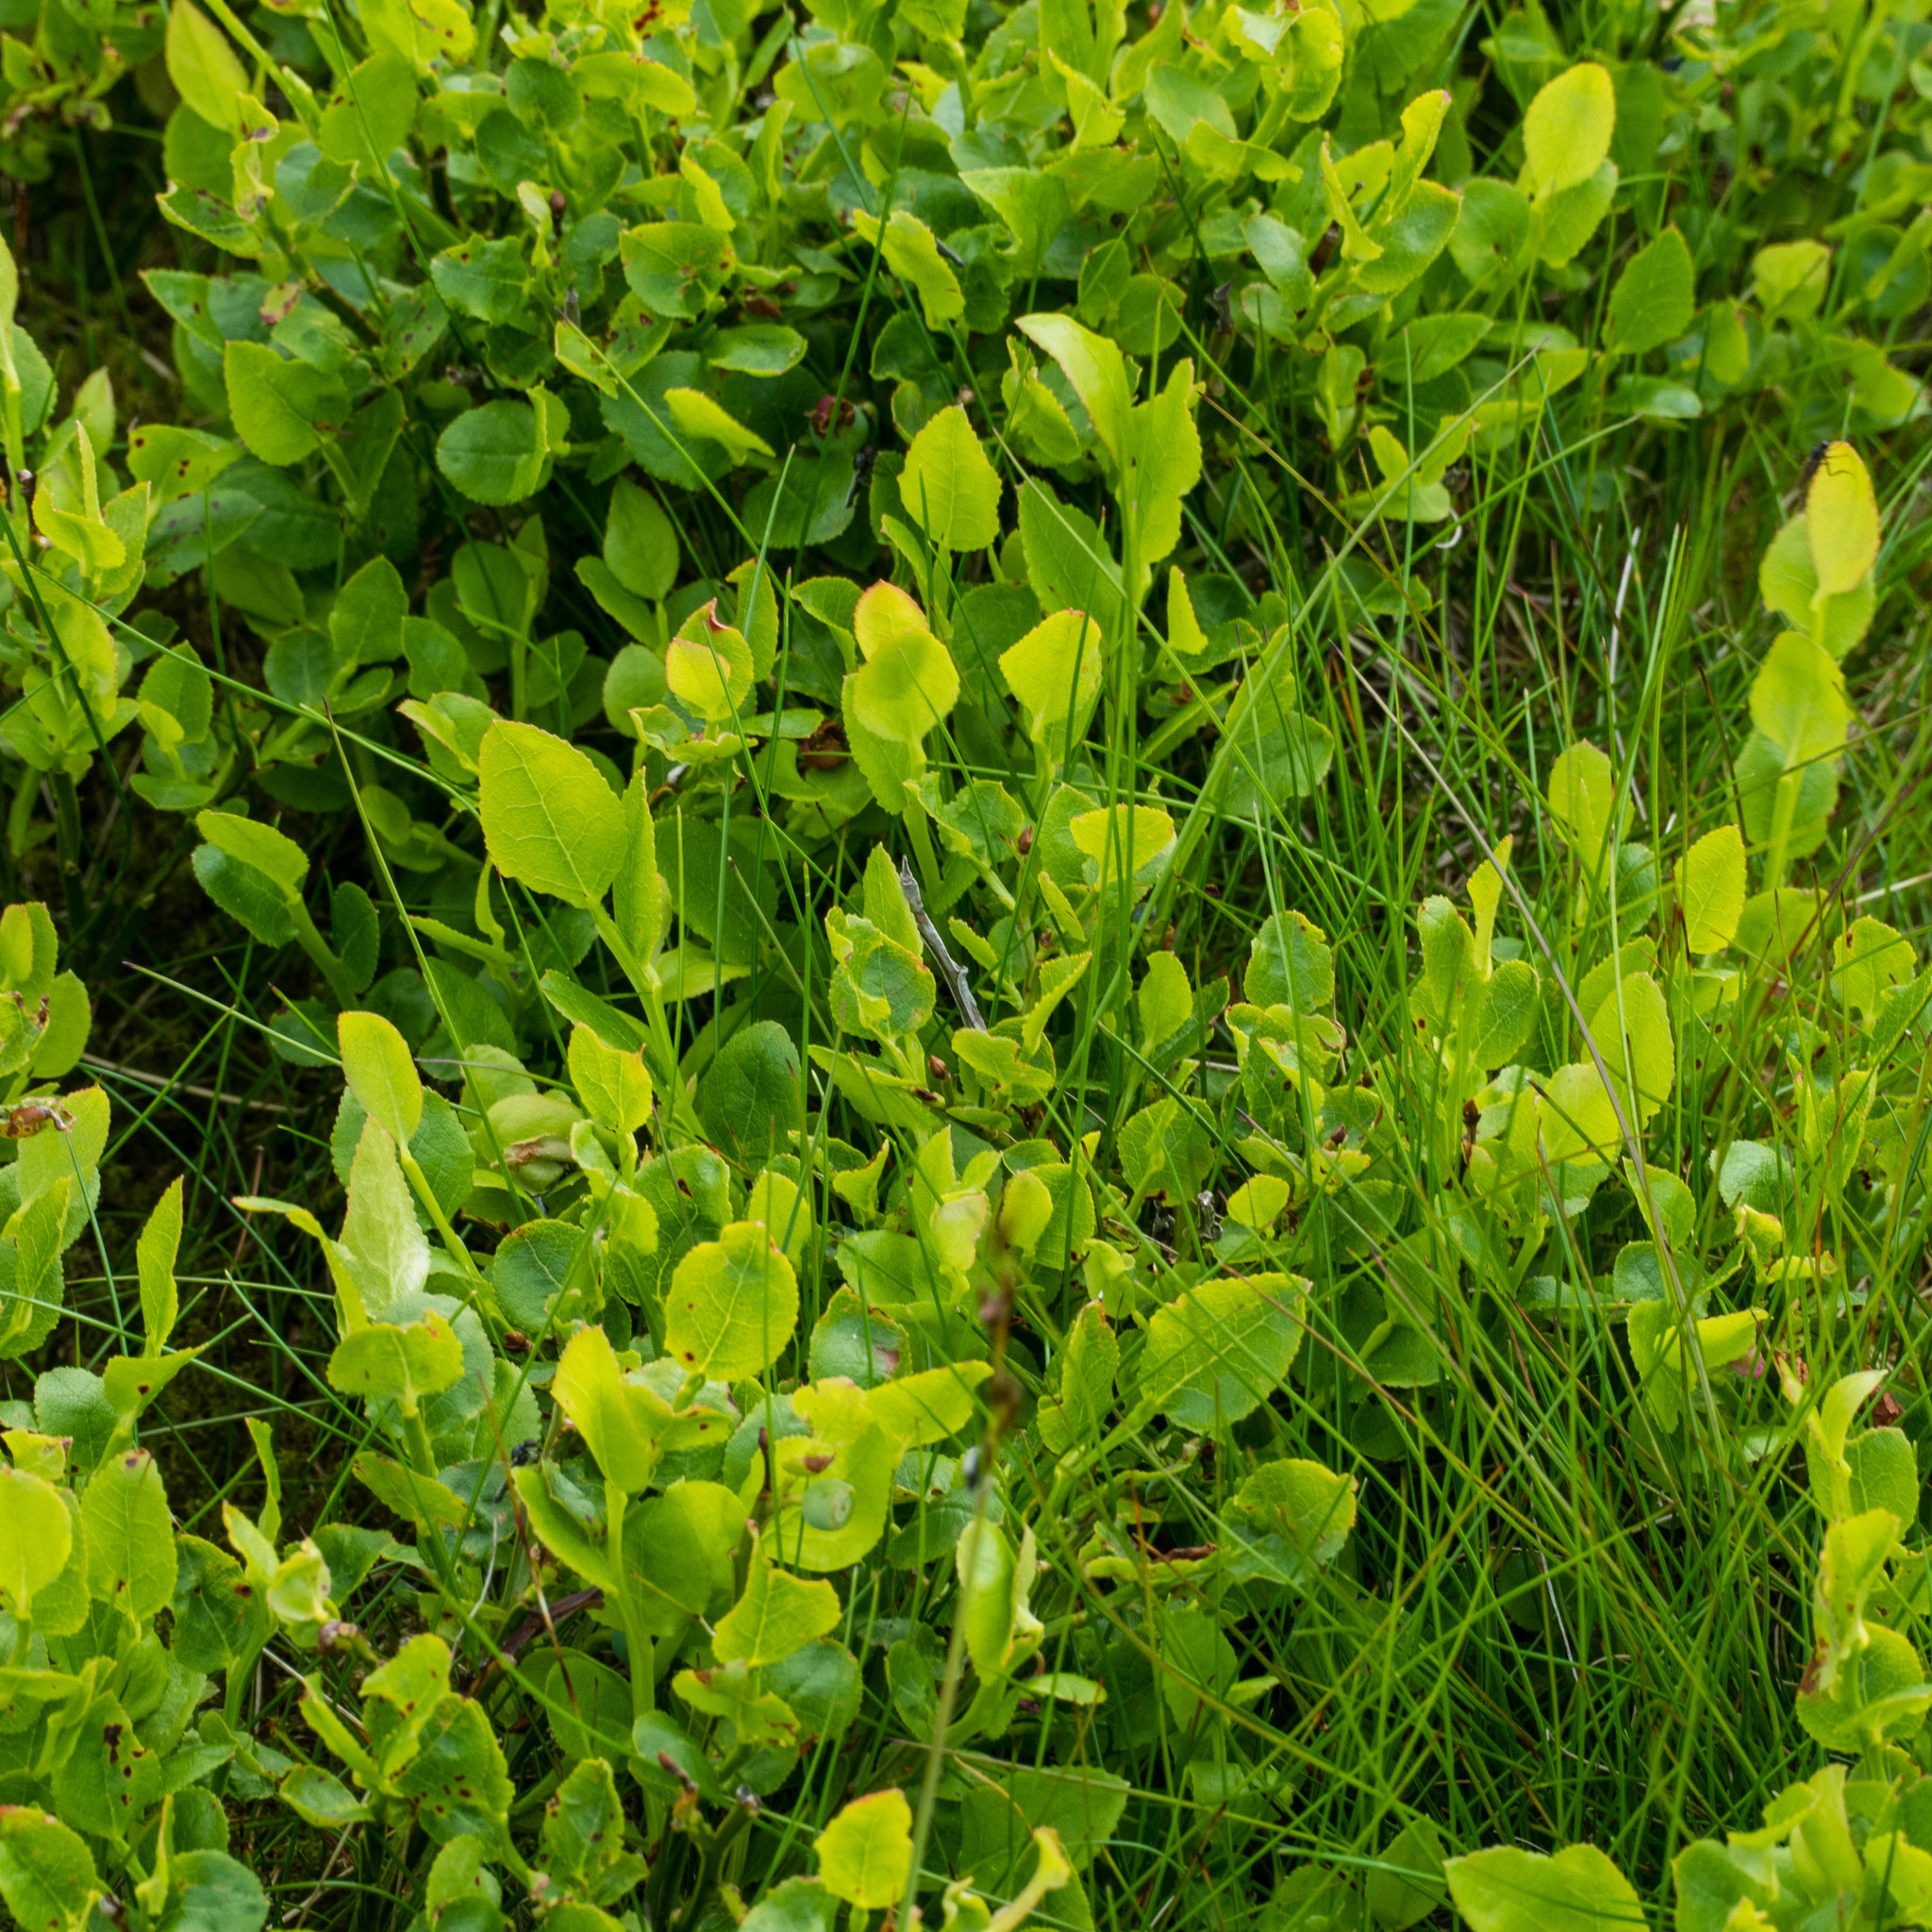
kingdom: Plantae
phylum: Tracheophyta
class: Magnoliopsida
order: Ericales
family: Ericaceae
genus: Vaccinium
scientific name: Vaccinium myrtillus
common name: Bilberry
